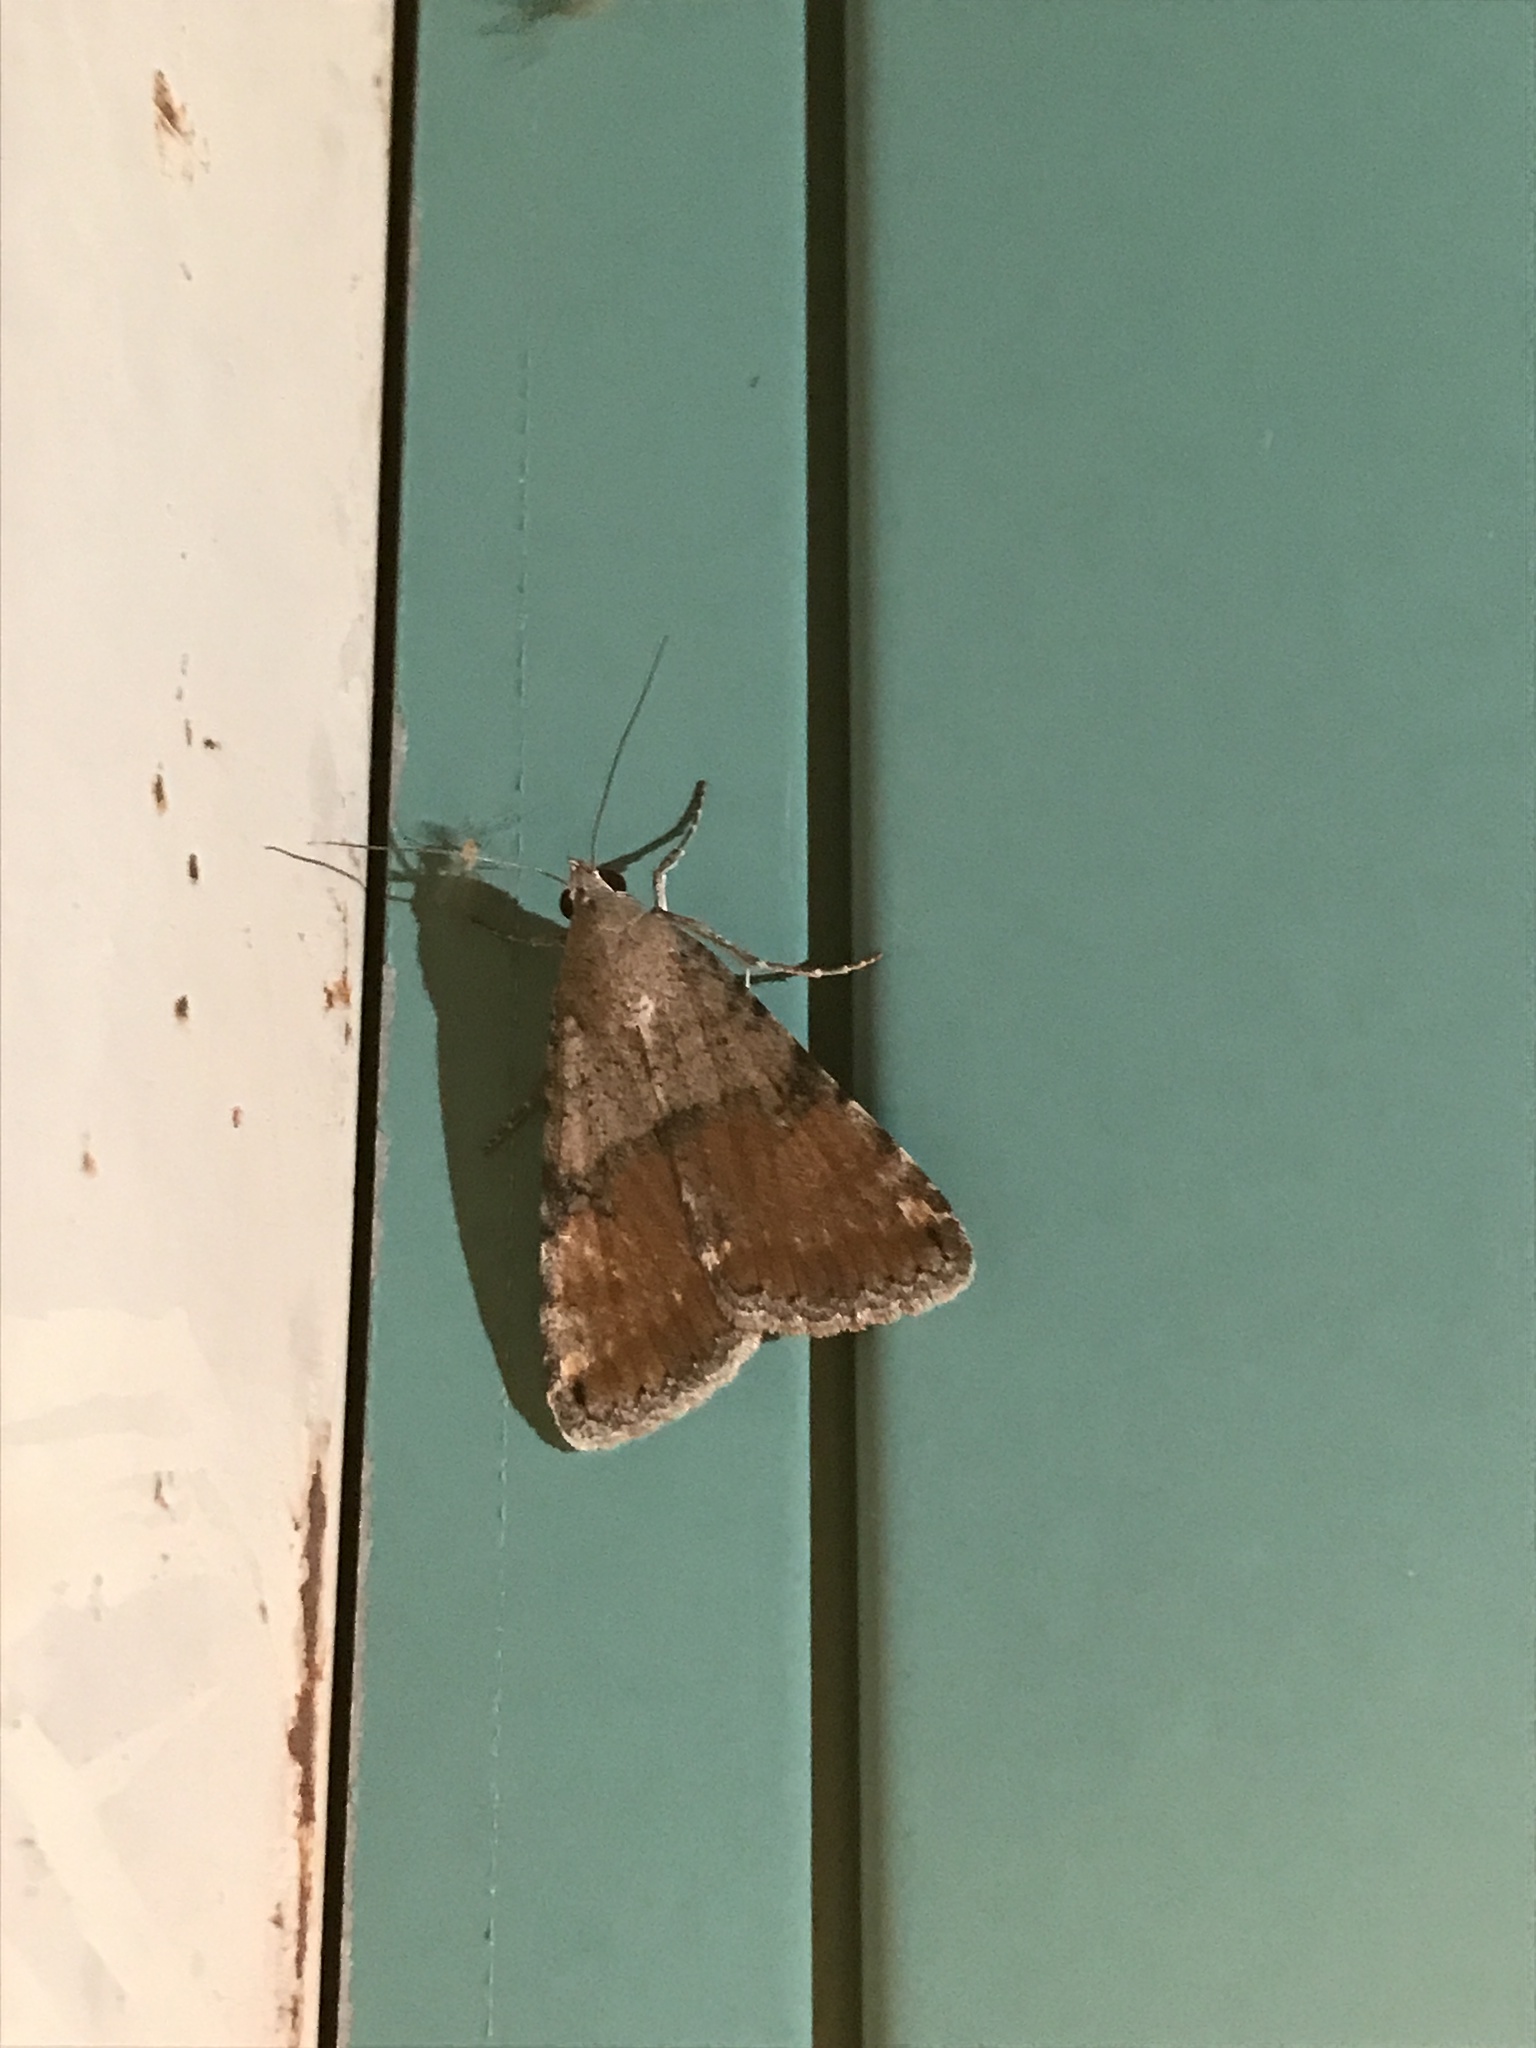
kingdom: Animalia
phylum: Arthropoda
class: Insecta
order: Lepidoptera
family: Erebidae
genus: Bulia
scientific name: Bulia deducta
